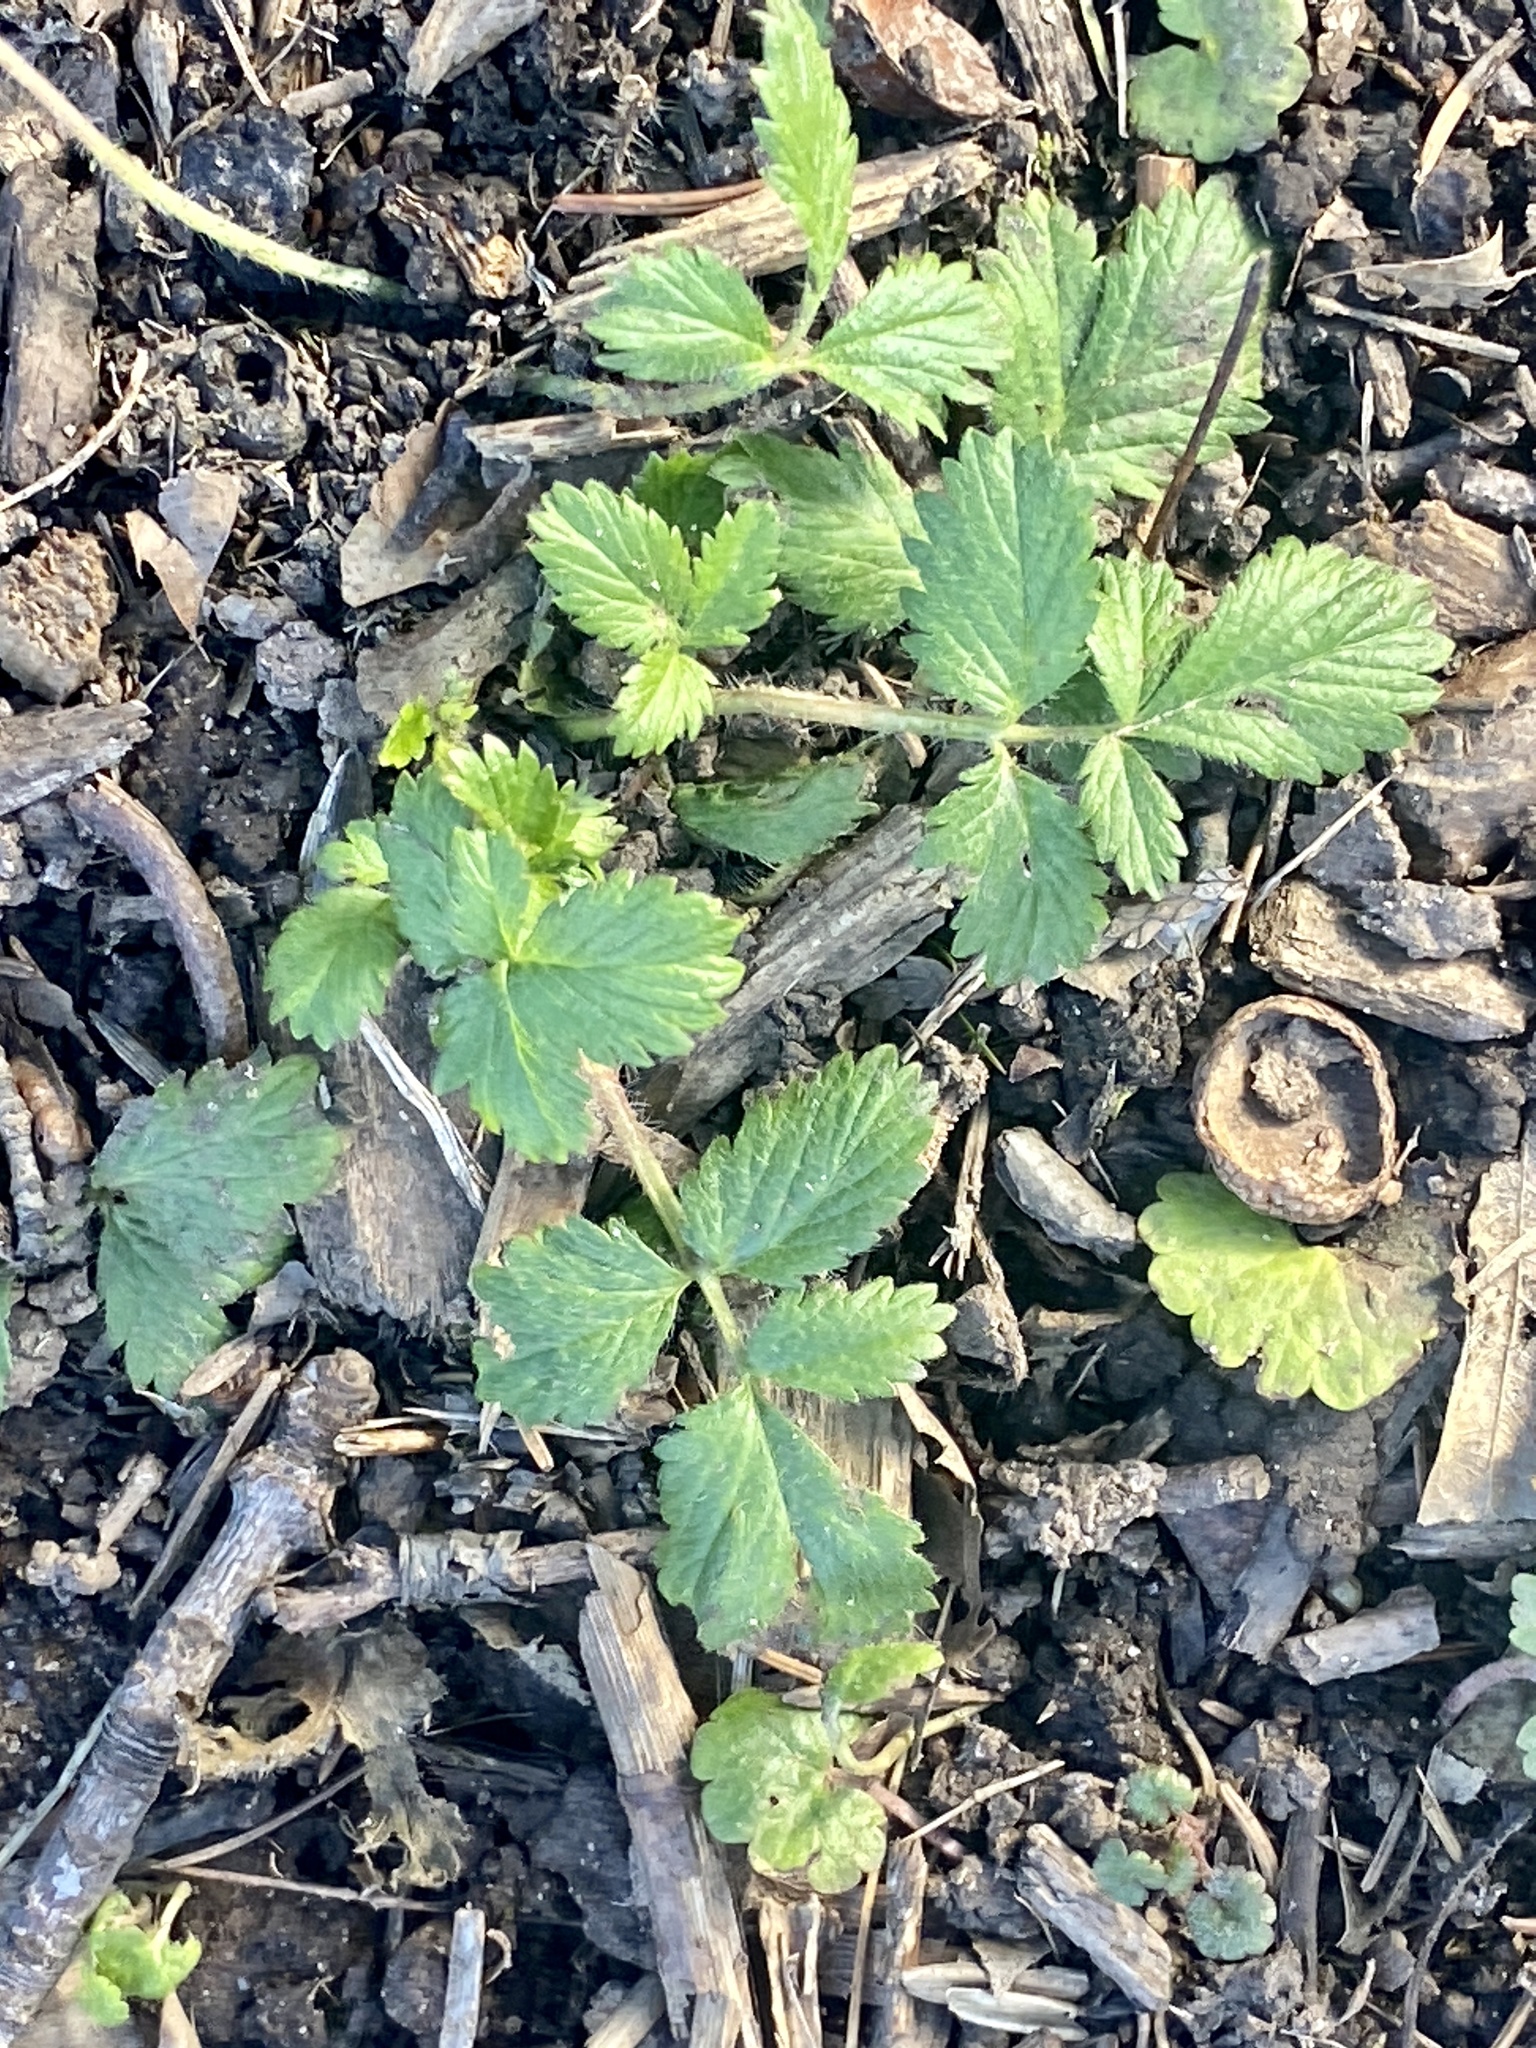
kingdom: Plantae
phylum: Tracheophyta
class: Magnoliopsida
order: Rosales
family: Rosaceae
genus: Potentilla
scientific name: Potentilla norvegica
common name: Ternate-leaved cinquefoil
